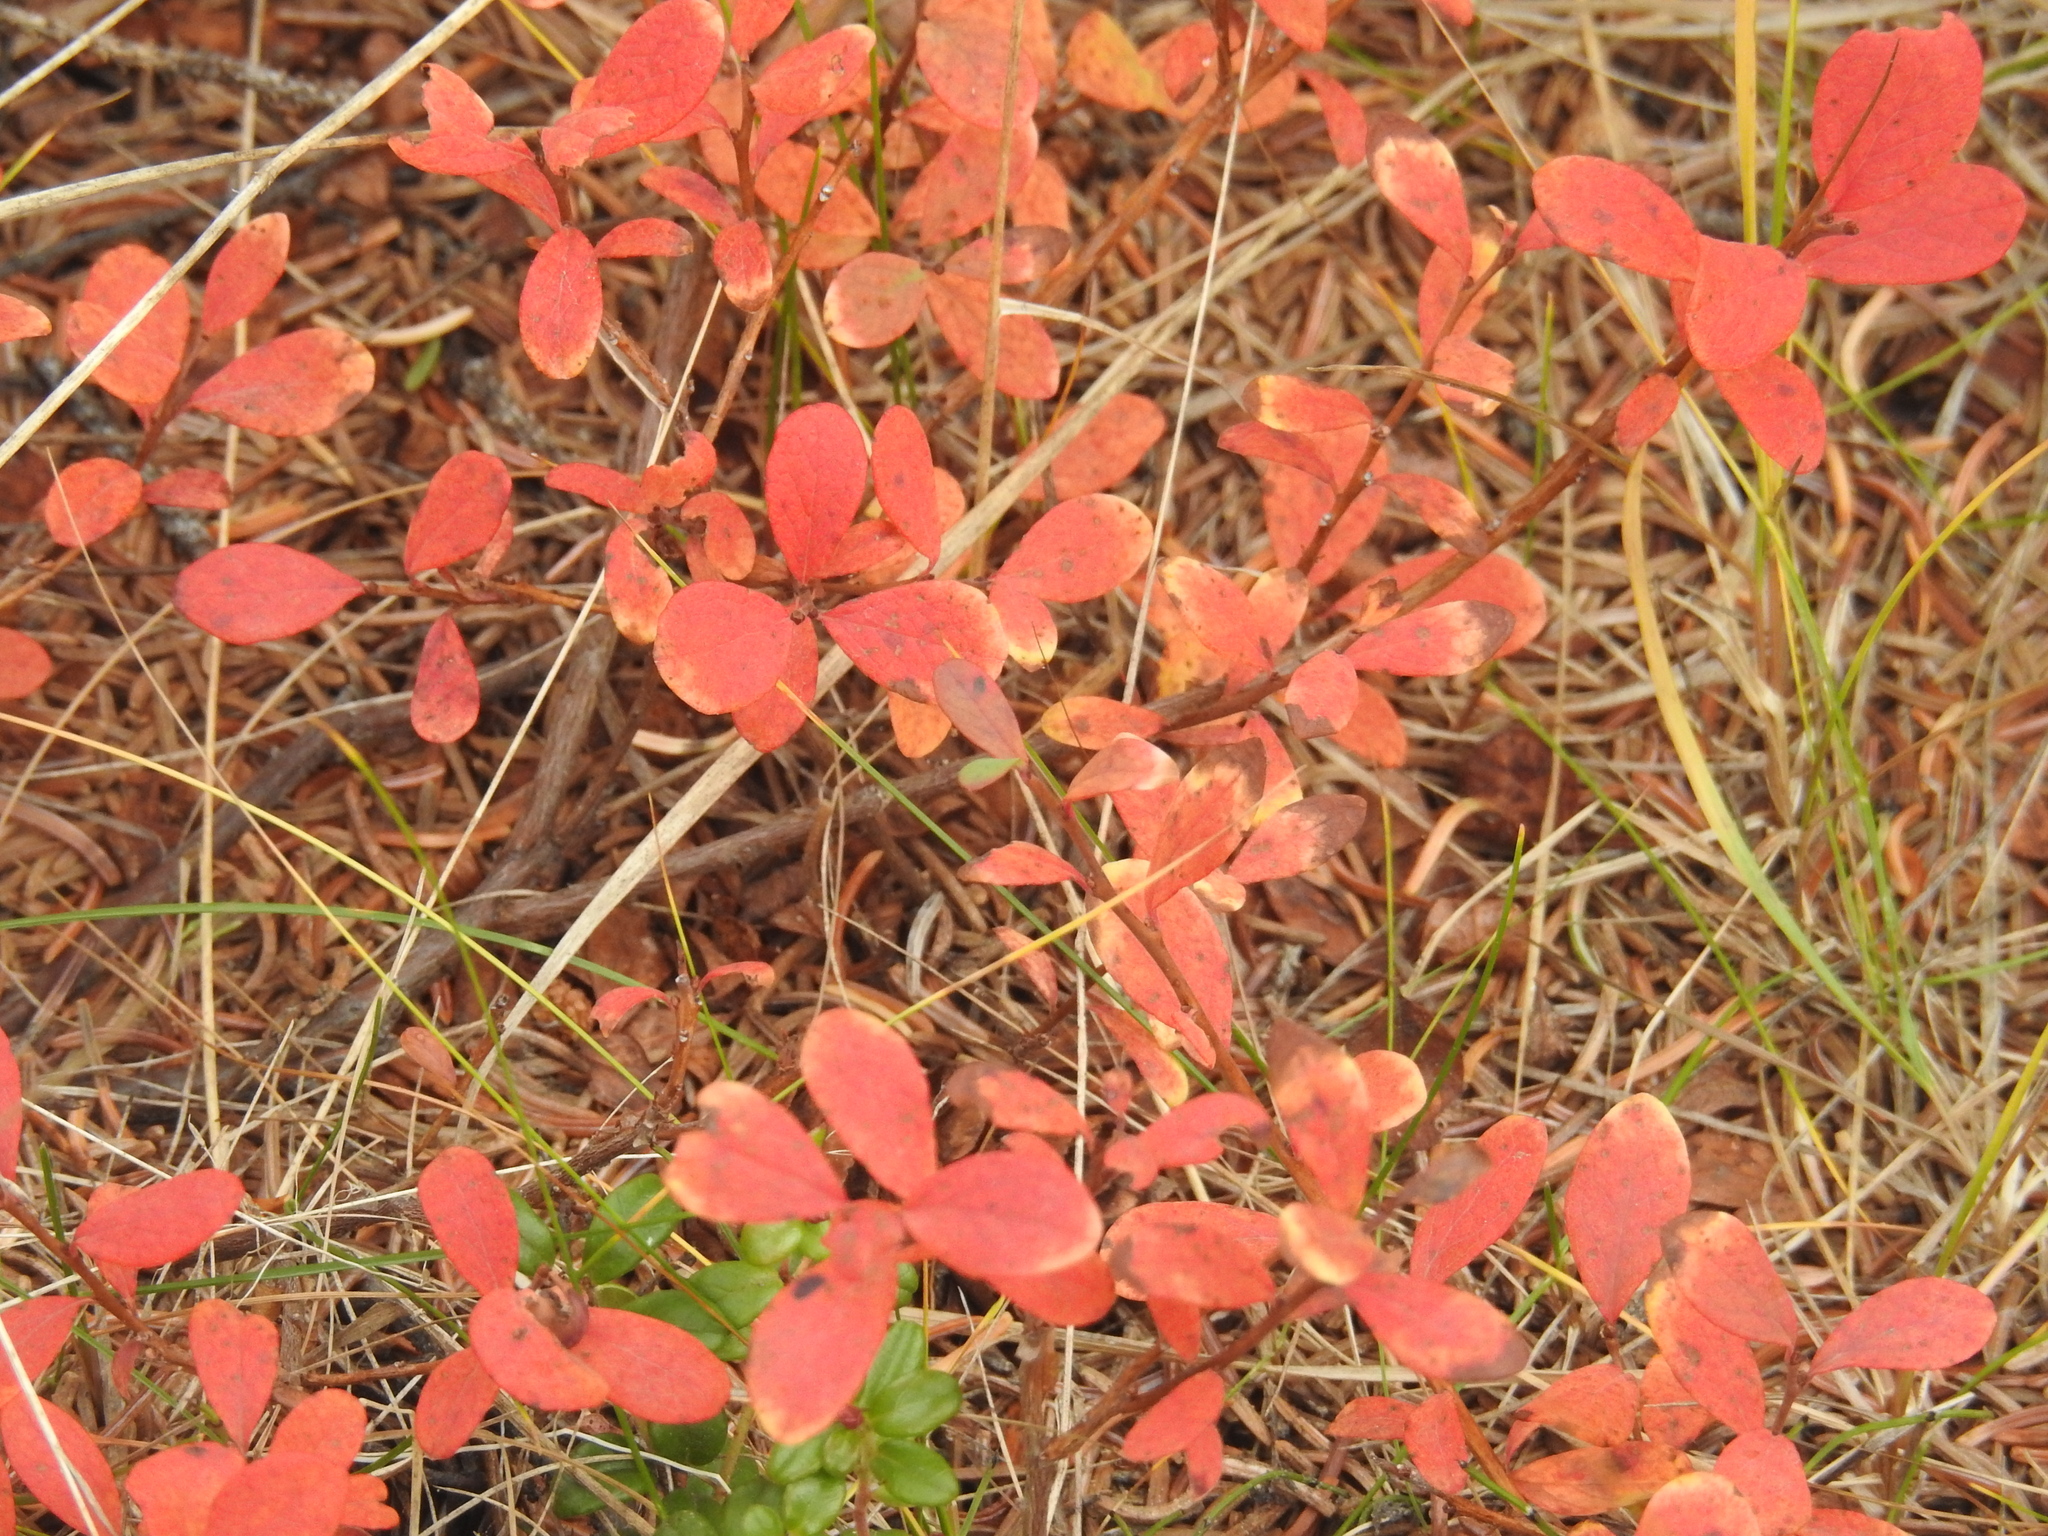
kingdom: Plantae
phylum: Tracheophyta
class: Magnoliopsida
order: Ericales
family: Ericaceae
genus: Vaccinium
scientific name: Vaccinium uliginosum
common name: Bog bilberry
